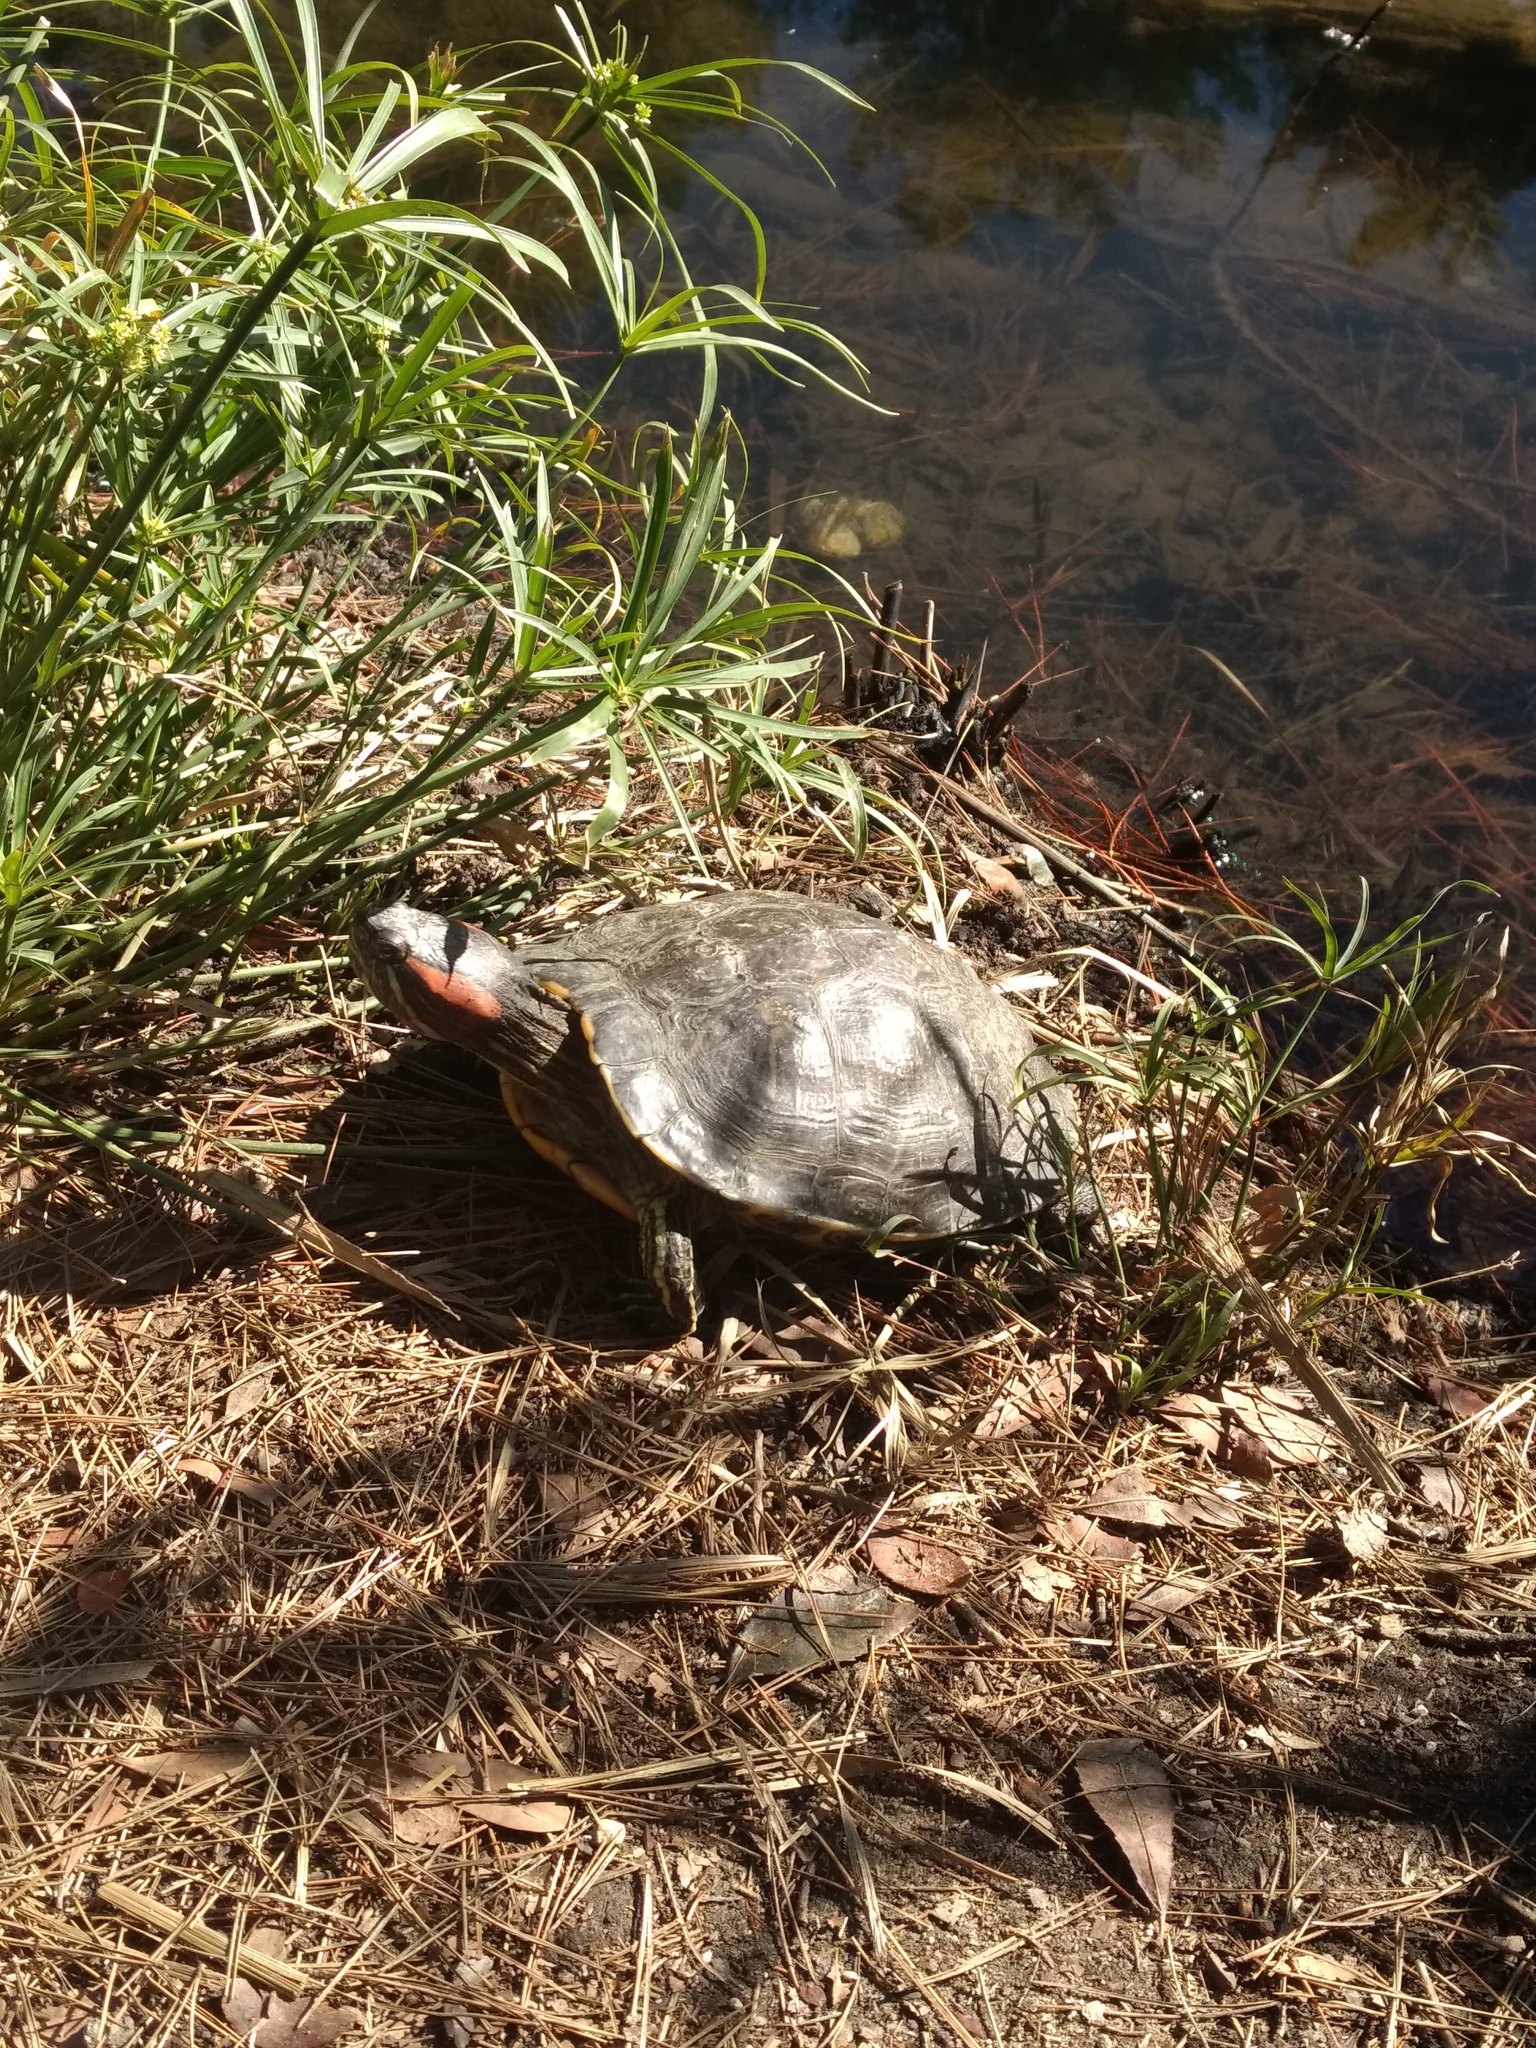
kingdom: Animalia
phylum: Chordata
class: Testudines
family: Emydidae
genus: Trachemys
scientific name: Trachemys scripta
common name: Slider
